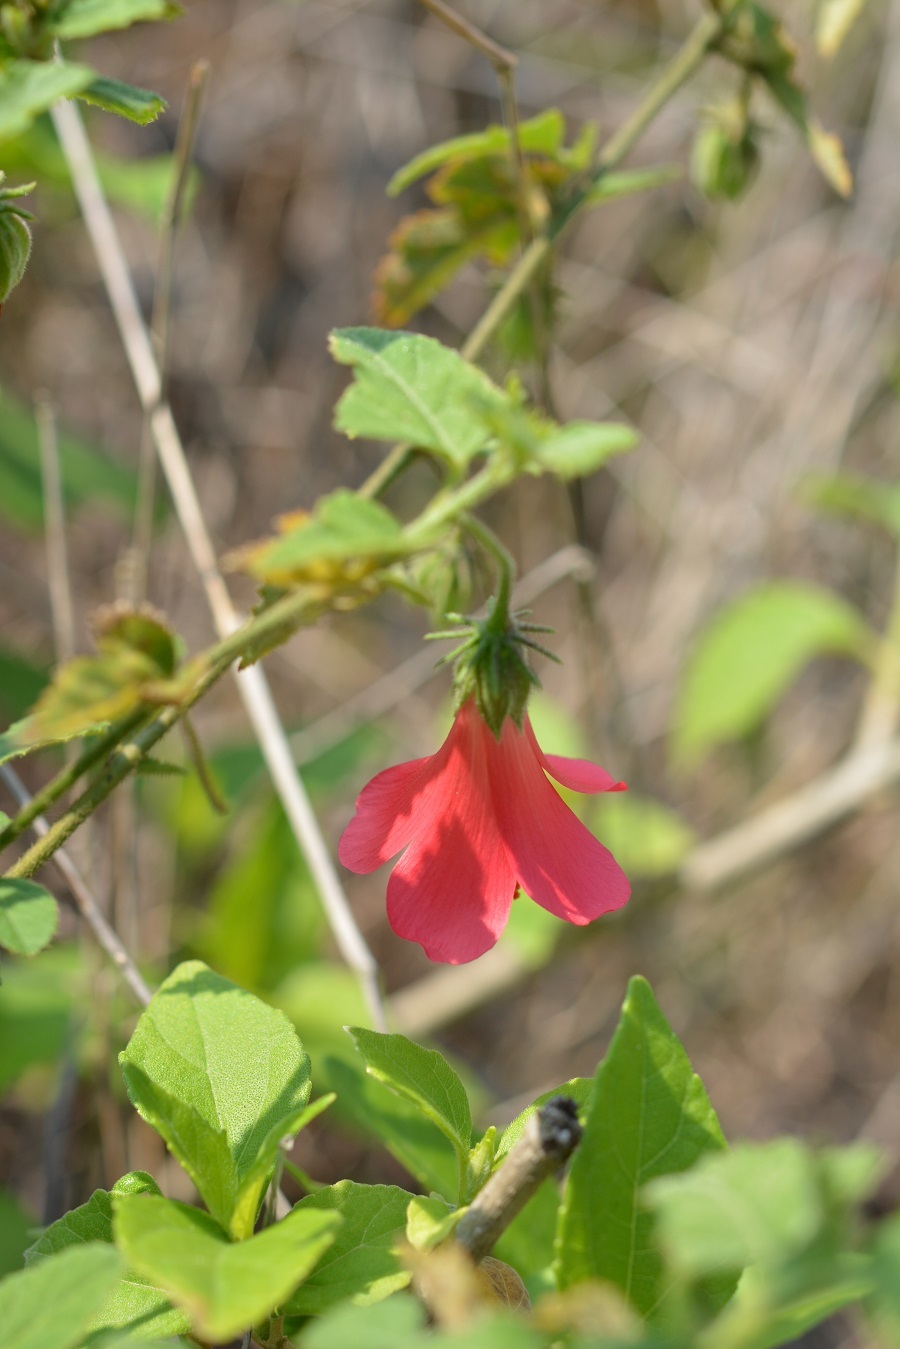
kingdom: Plantae
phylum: Tracheophyta
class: Magnoliopsida
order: Malvales
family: Malvaceae
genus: Hibiscus
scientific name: Hibiscus poeppigii
